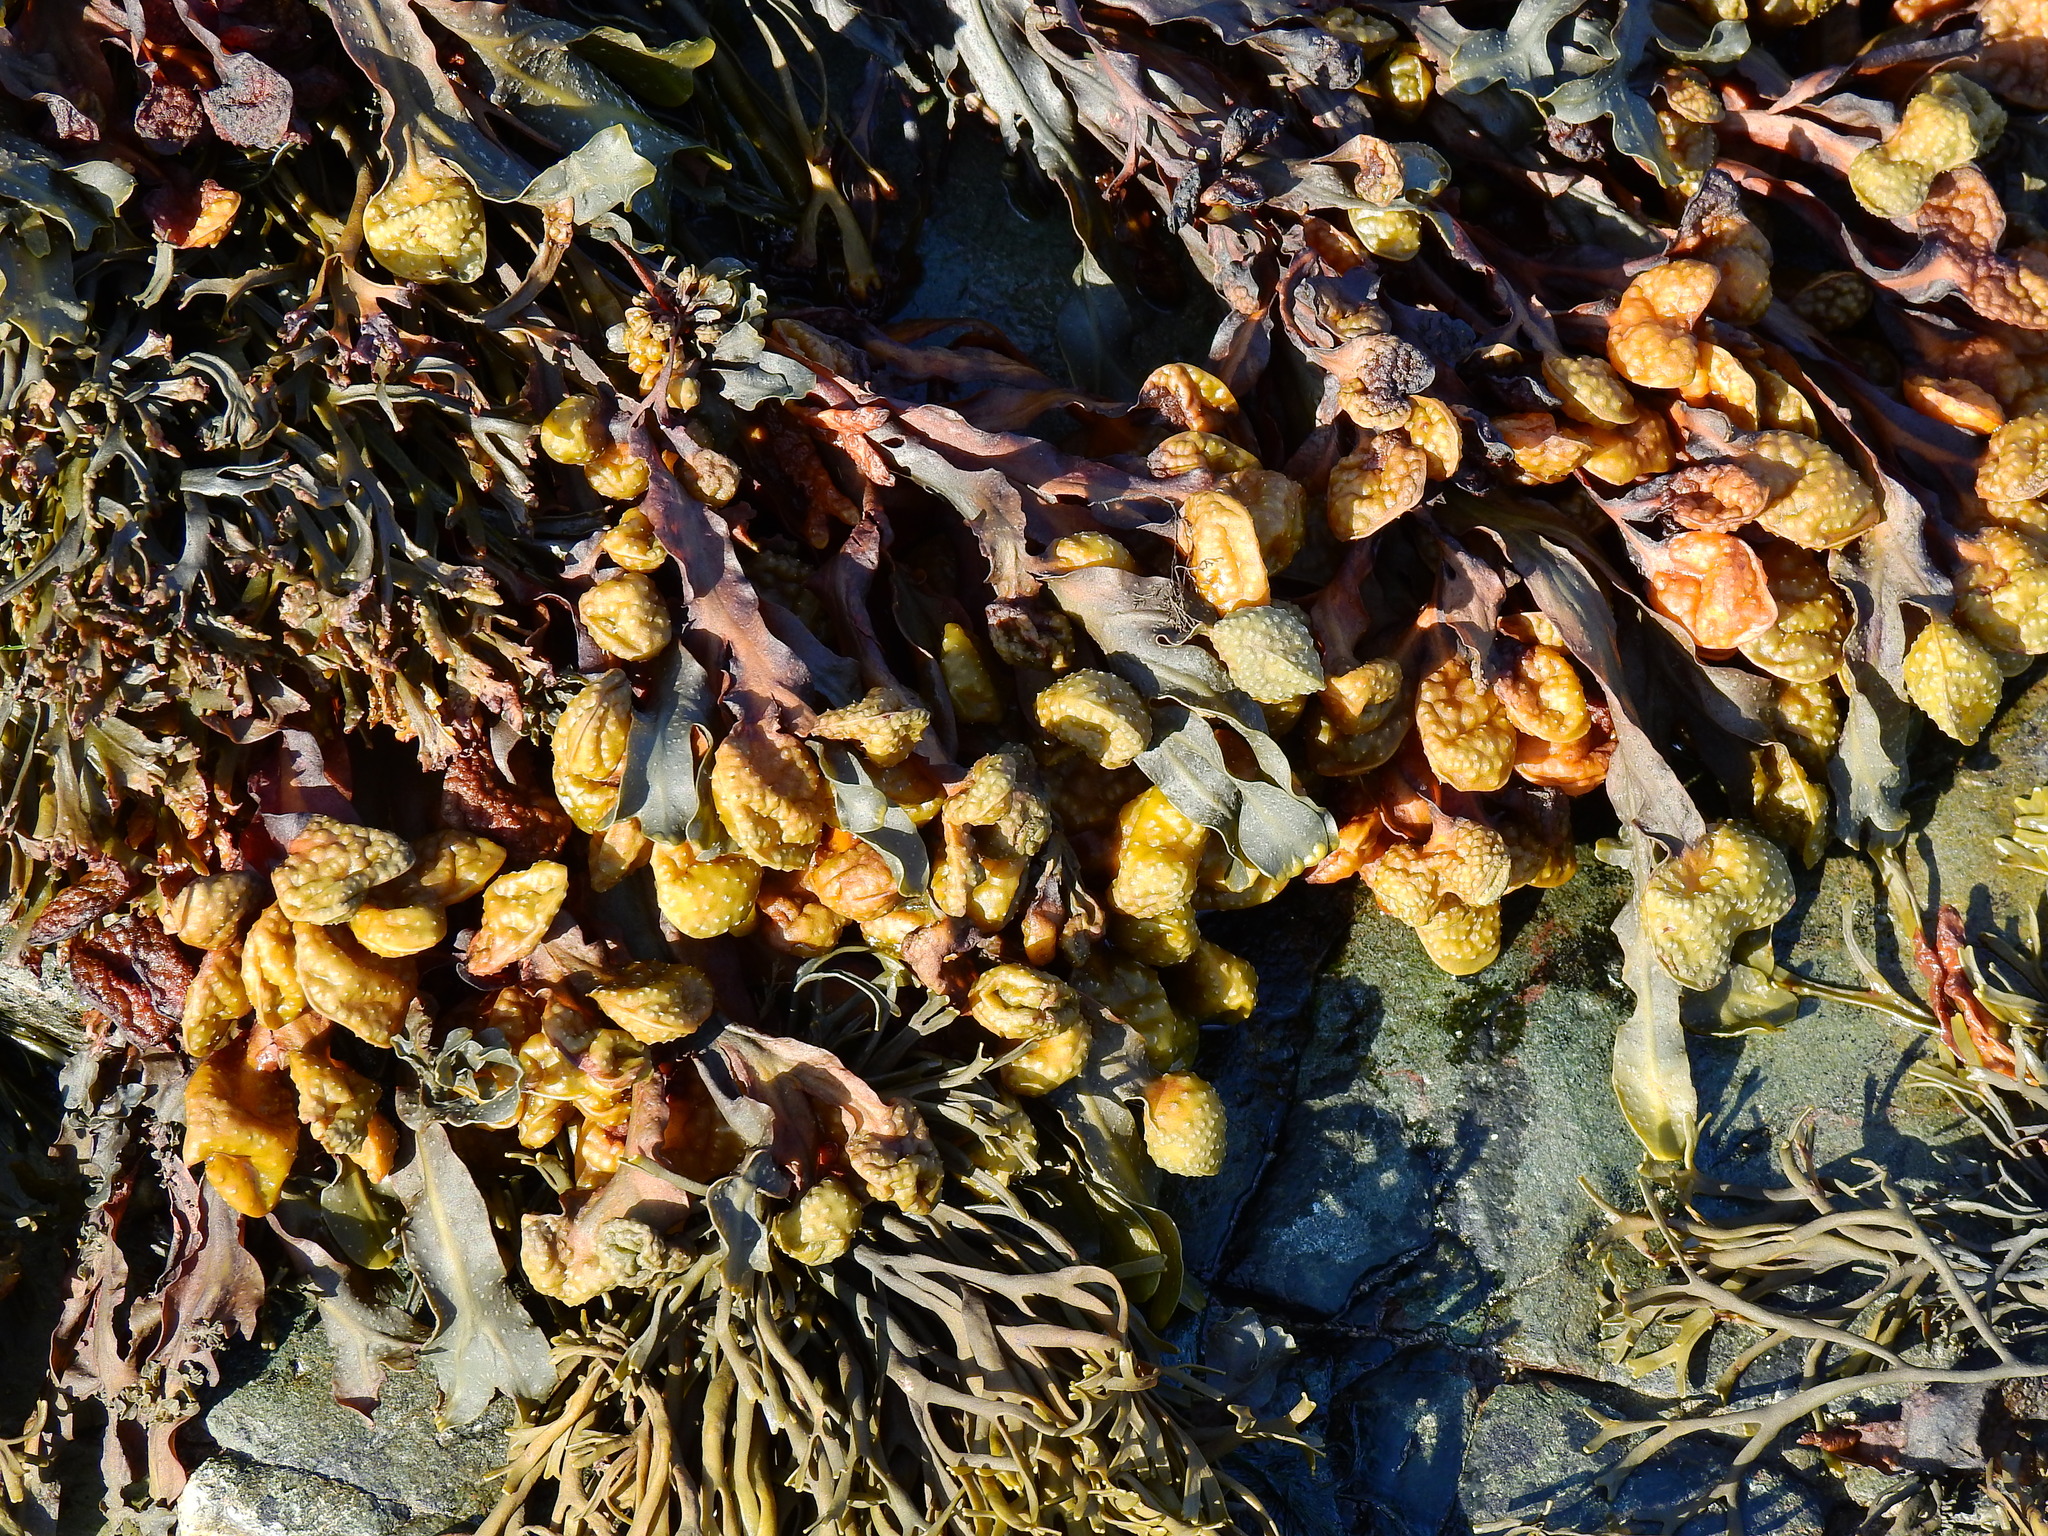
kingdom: Chromista
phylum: Ochrophyta
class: Phaeophyceae
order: Fucales
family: Fucaceae
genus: Fucus
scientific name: Fucus vesiculosus
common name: Bladder wrack
